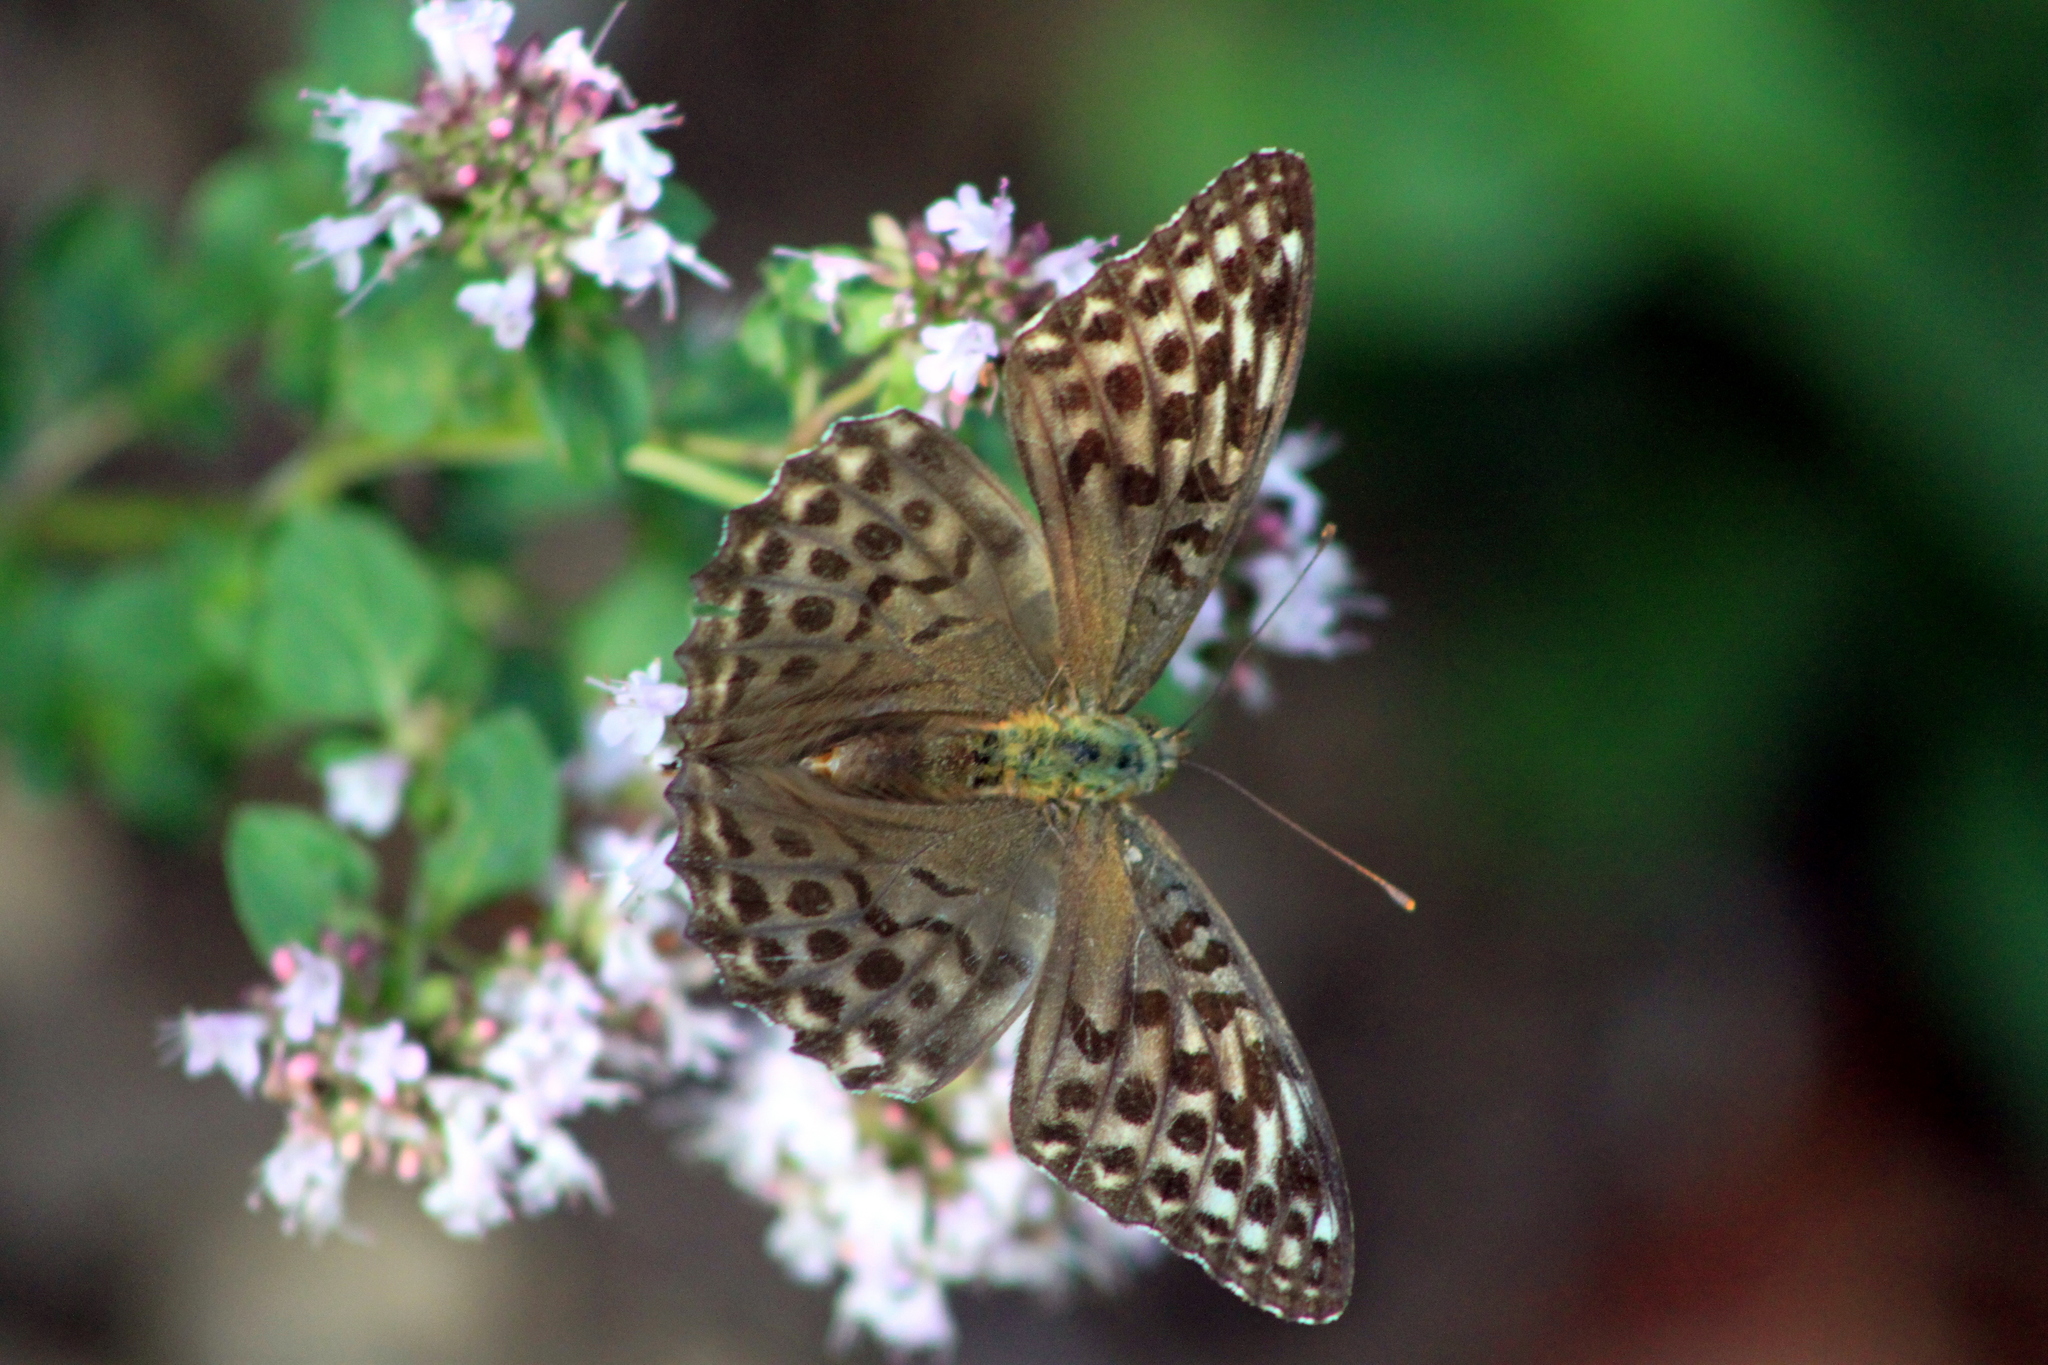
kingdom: Animalia
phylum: Arthropoda
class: Insecta
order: Lepidoptera
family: Nymphalidae
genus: Argynnis
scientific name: Argynnis paphia
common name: Silver-washed fritillary
